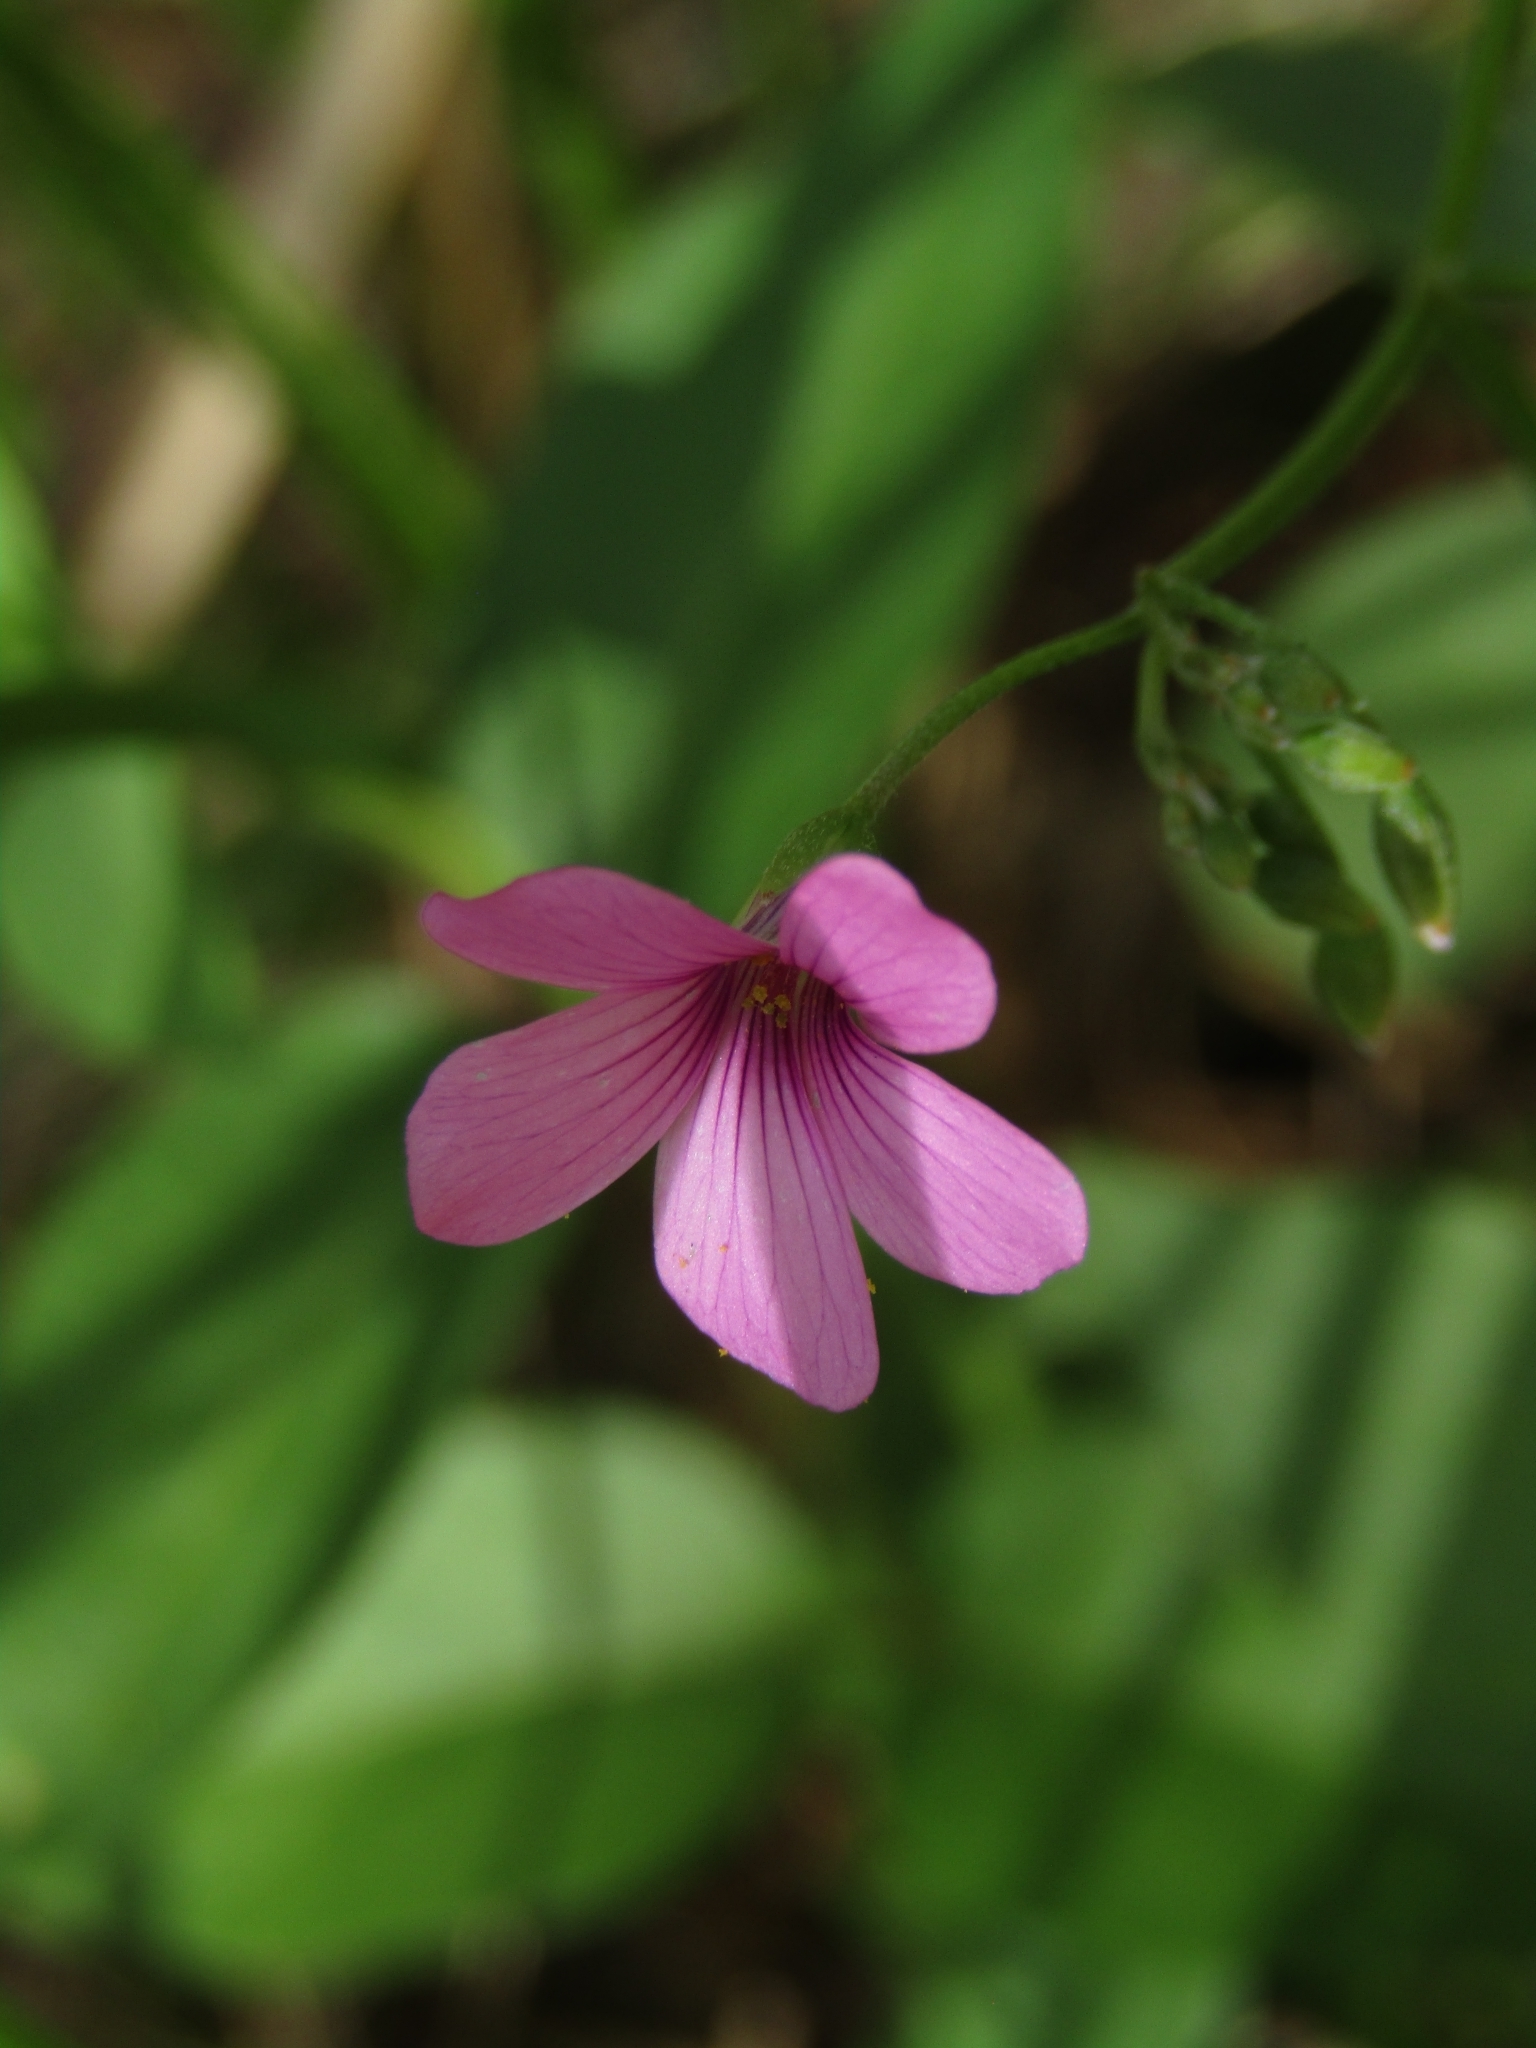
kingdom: Plantae
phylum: Tracheophyta
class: Magnoliopsida
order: Oxalidales
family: Oxalidaceae
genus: Oxalis
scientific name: Oxalis articulata
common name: Pink-sorrel
